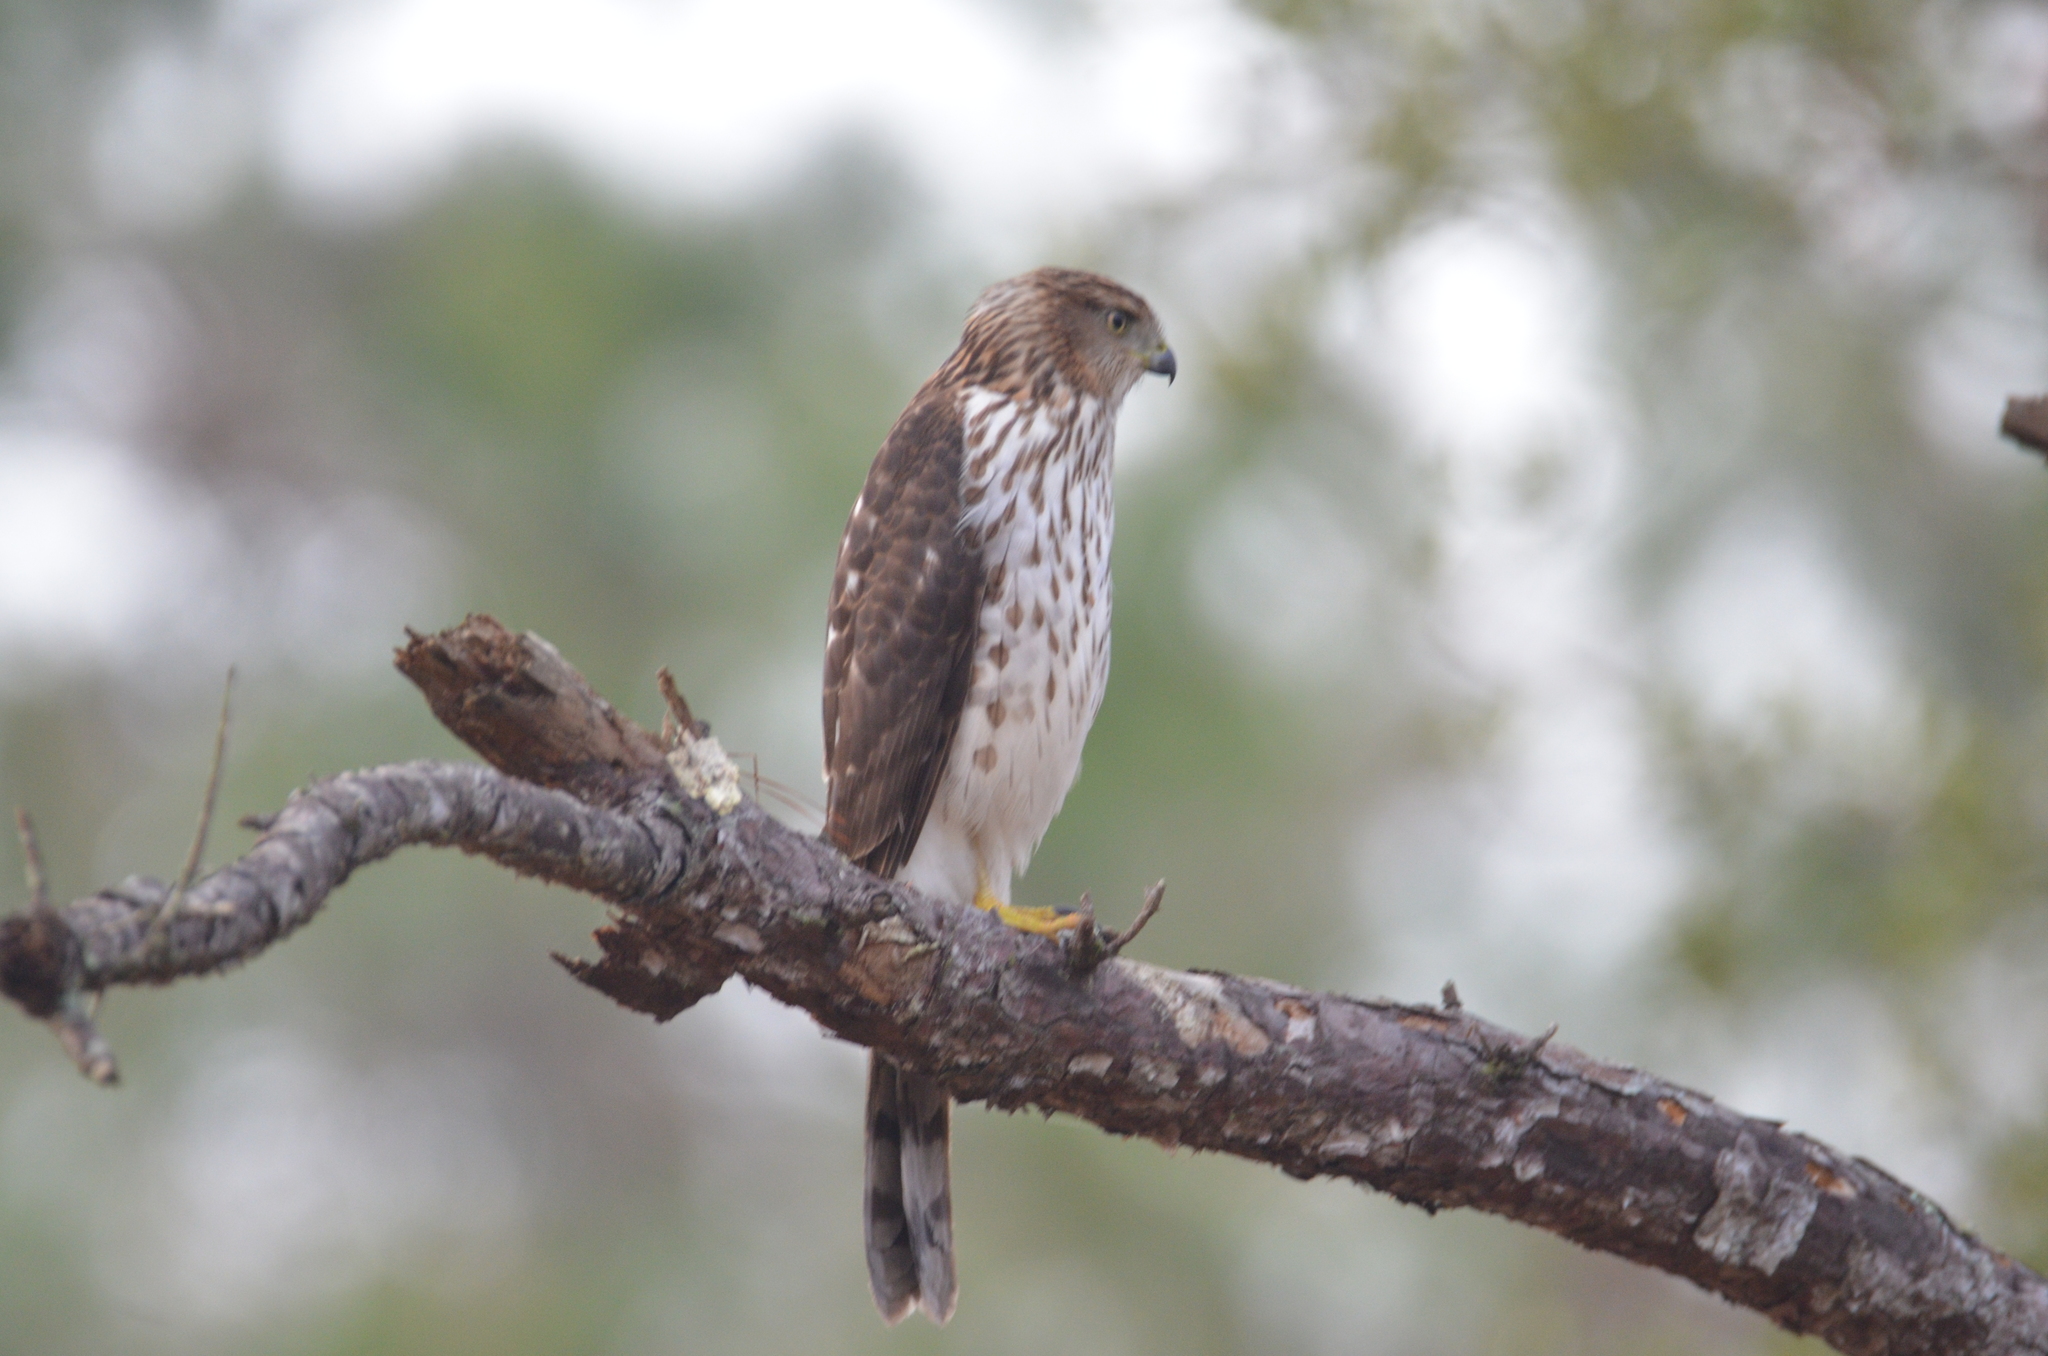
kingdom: Animalia
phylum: Chordata
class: Aves
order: Accipitriformes
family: Accipitridae
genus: Accipiter
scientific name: Accipiter cooperii
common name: Cooper's hawk
